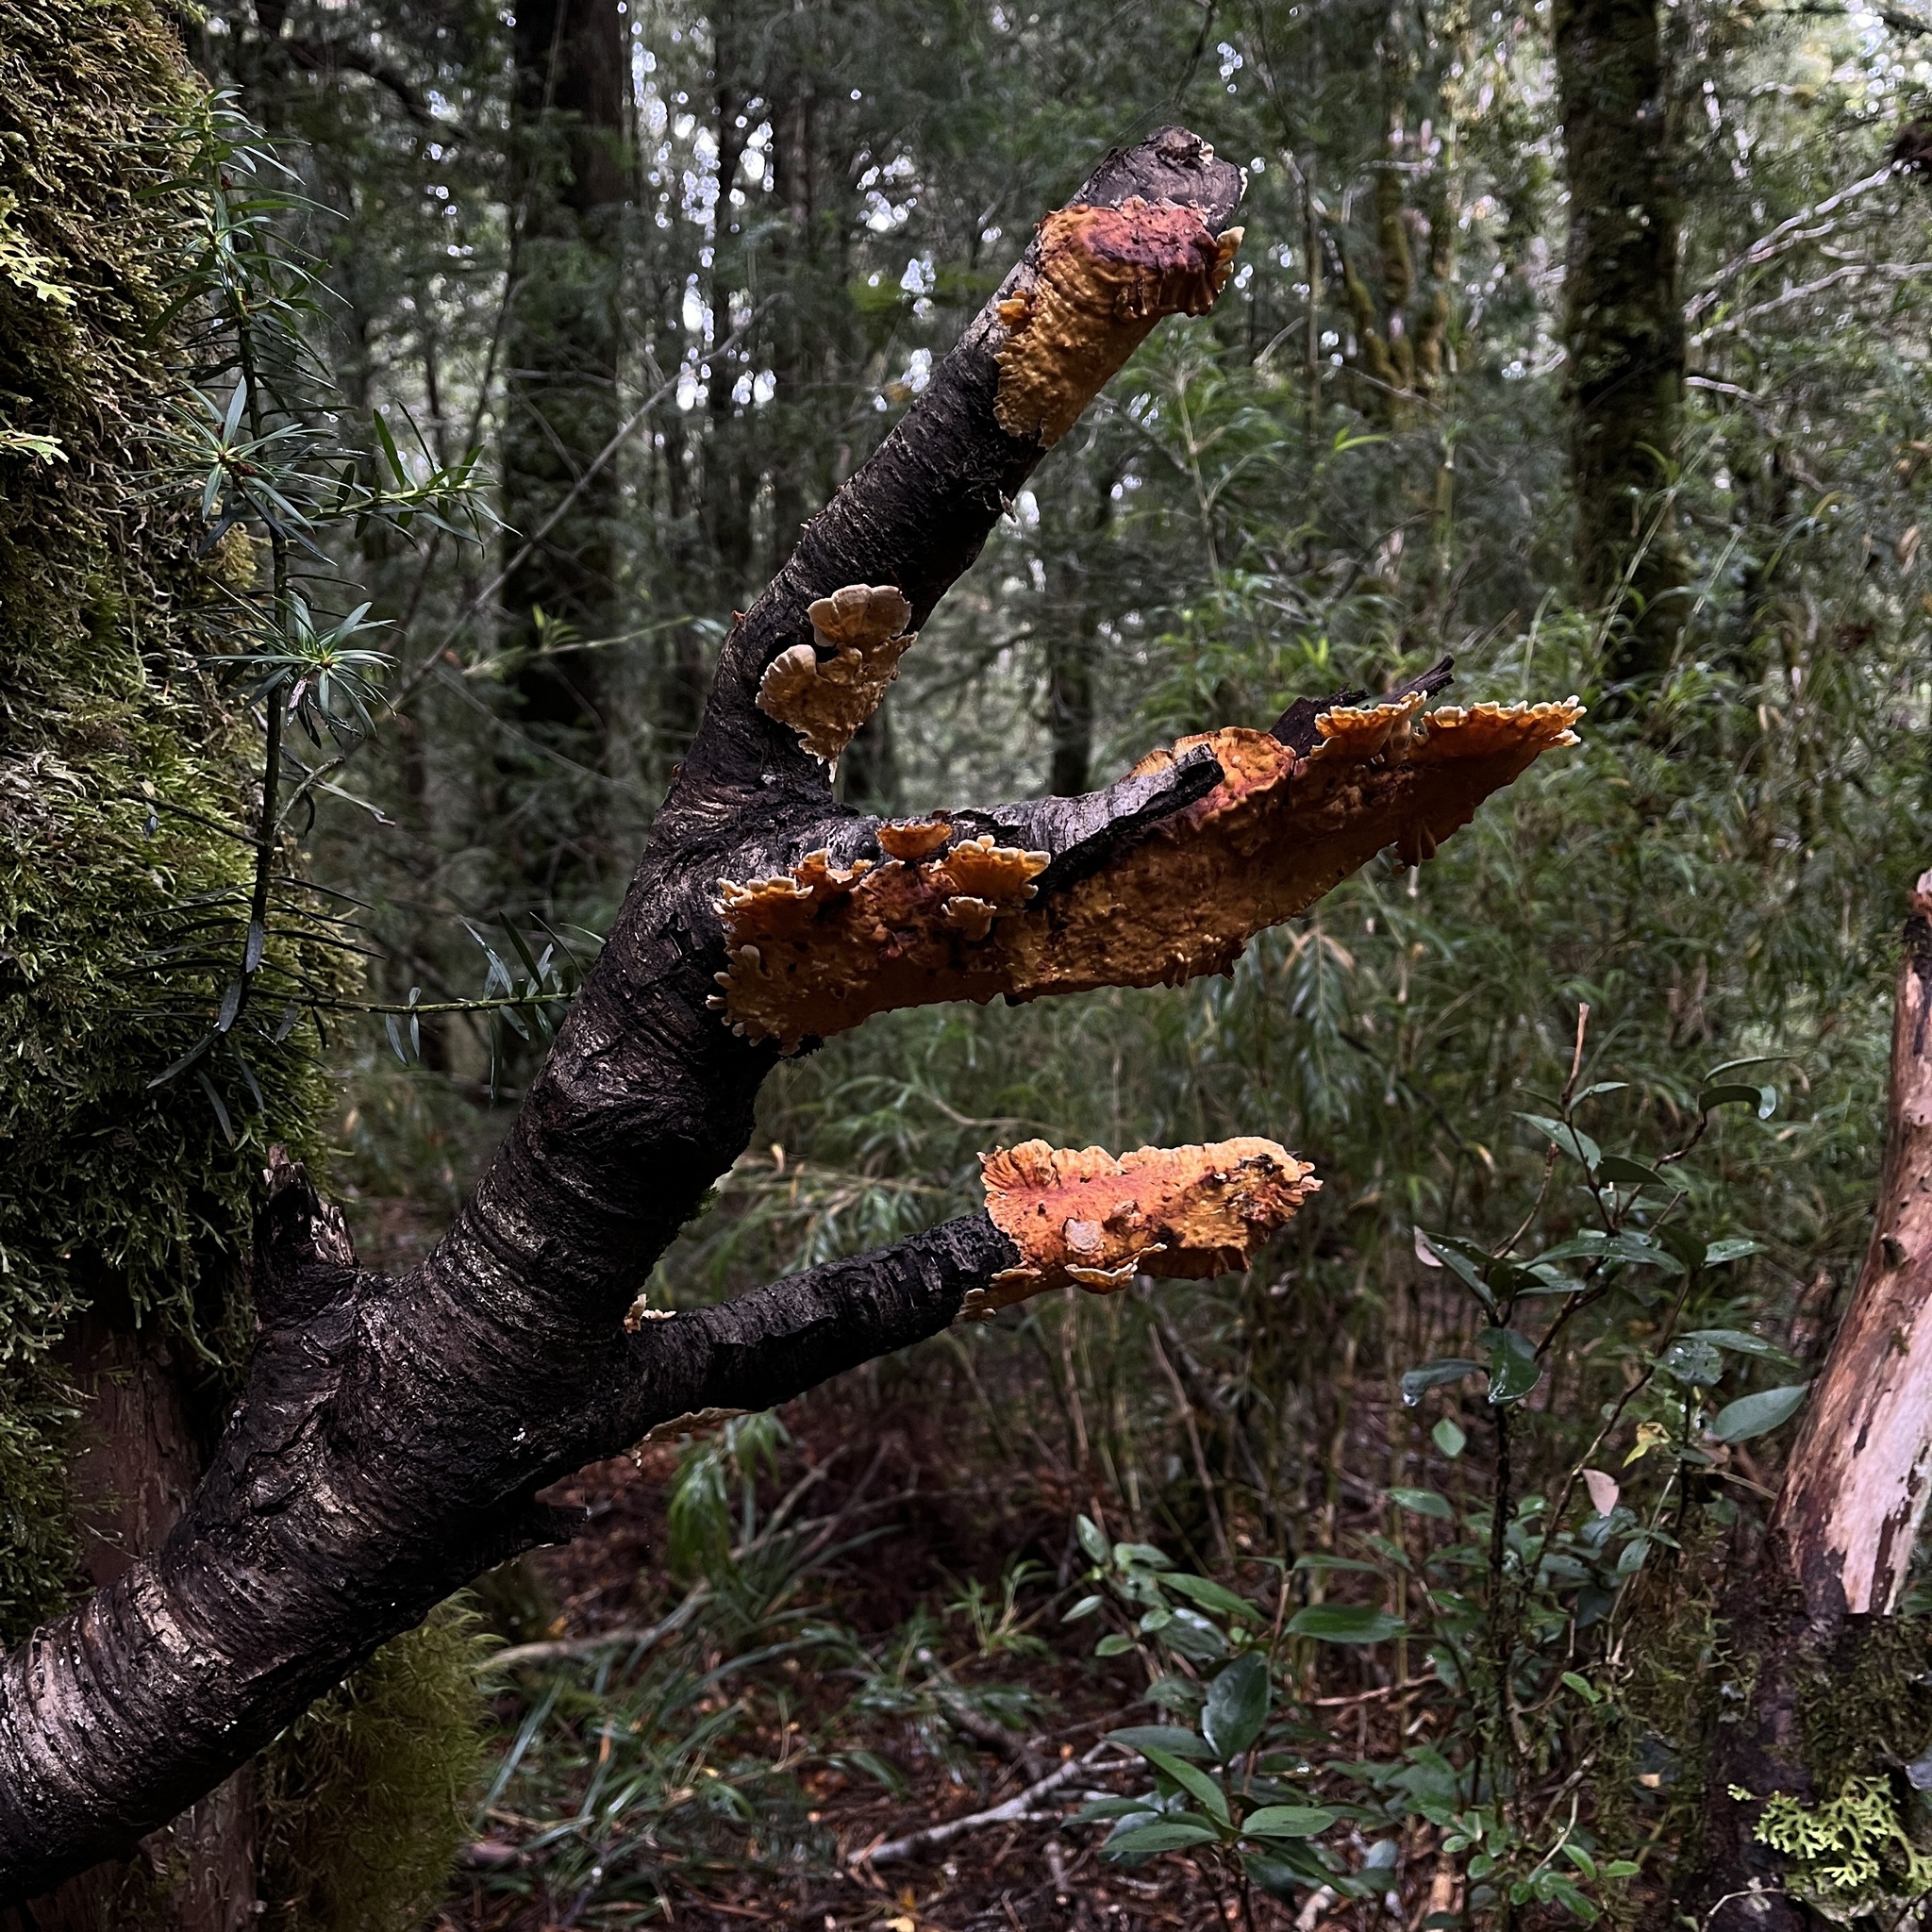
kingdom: Fungi
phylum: Basidiomycota
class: Agaricomycetes
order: Russulales
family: Stereaceae
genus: Stereum
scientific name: Stereum hirsutum
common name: Hairy curtain crust
